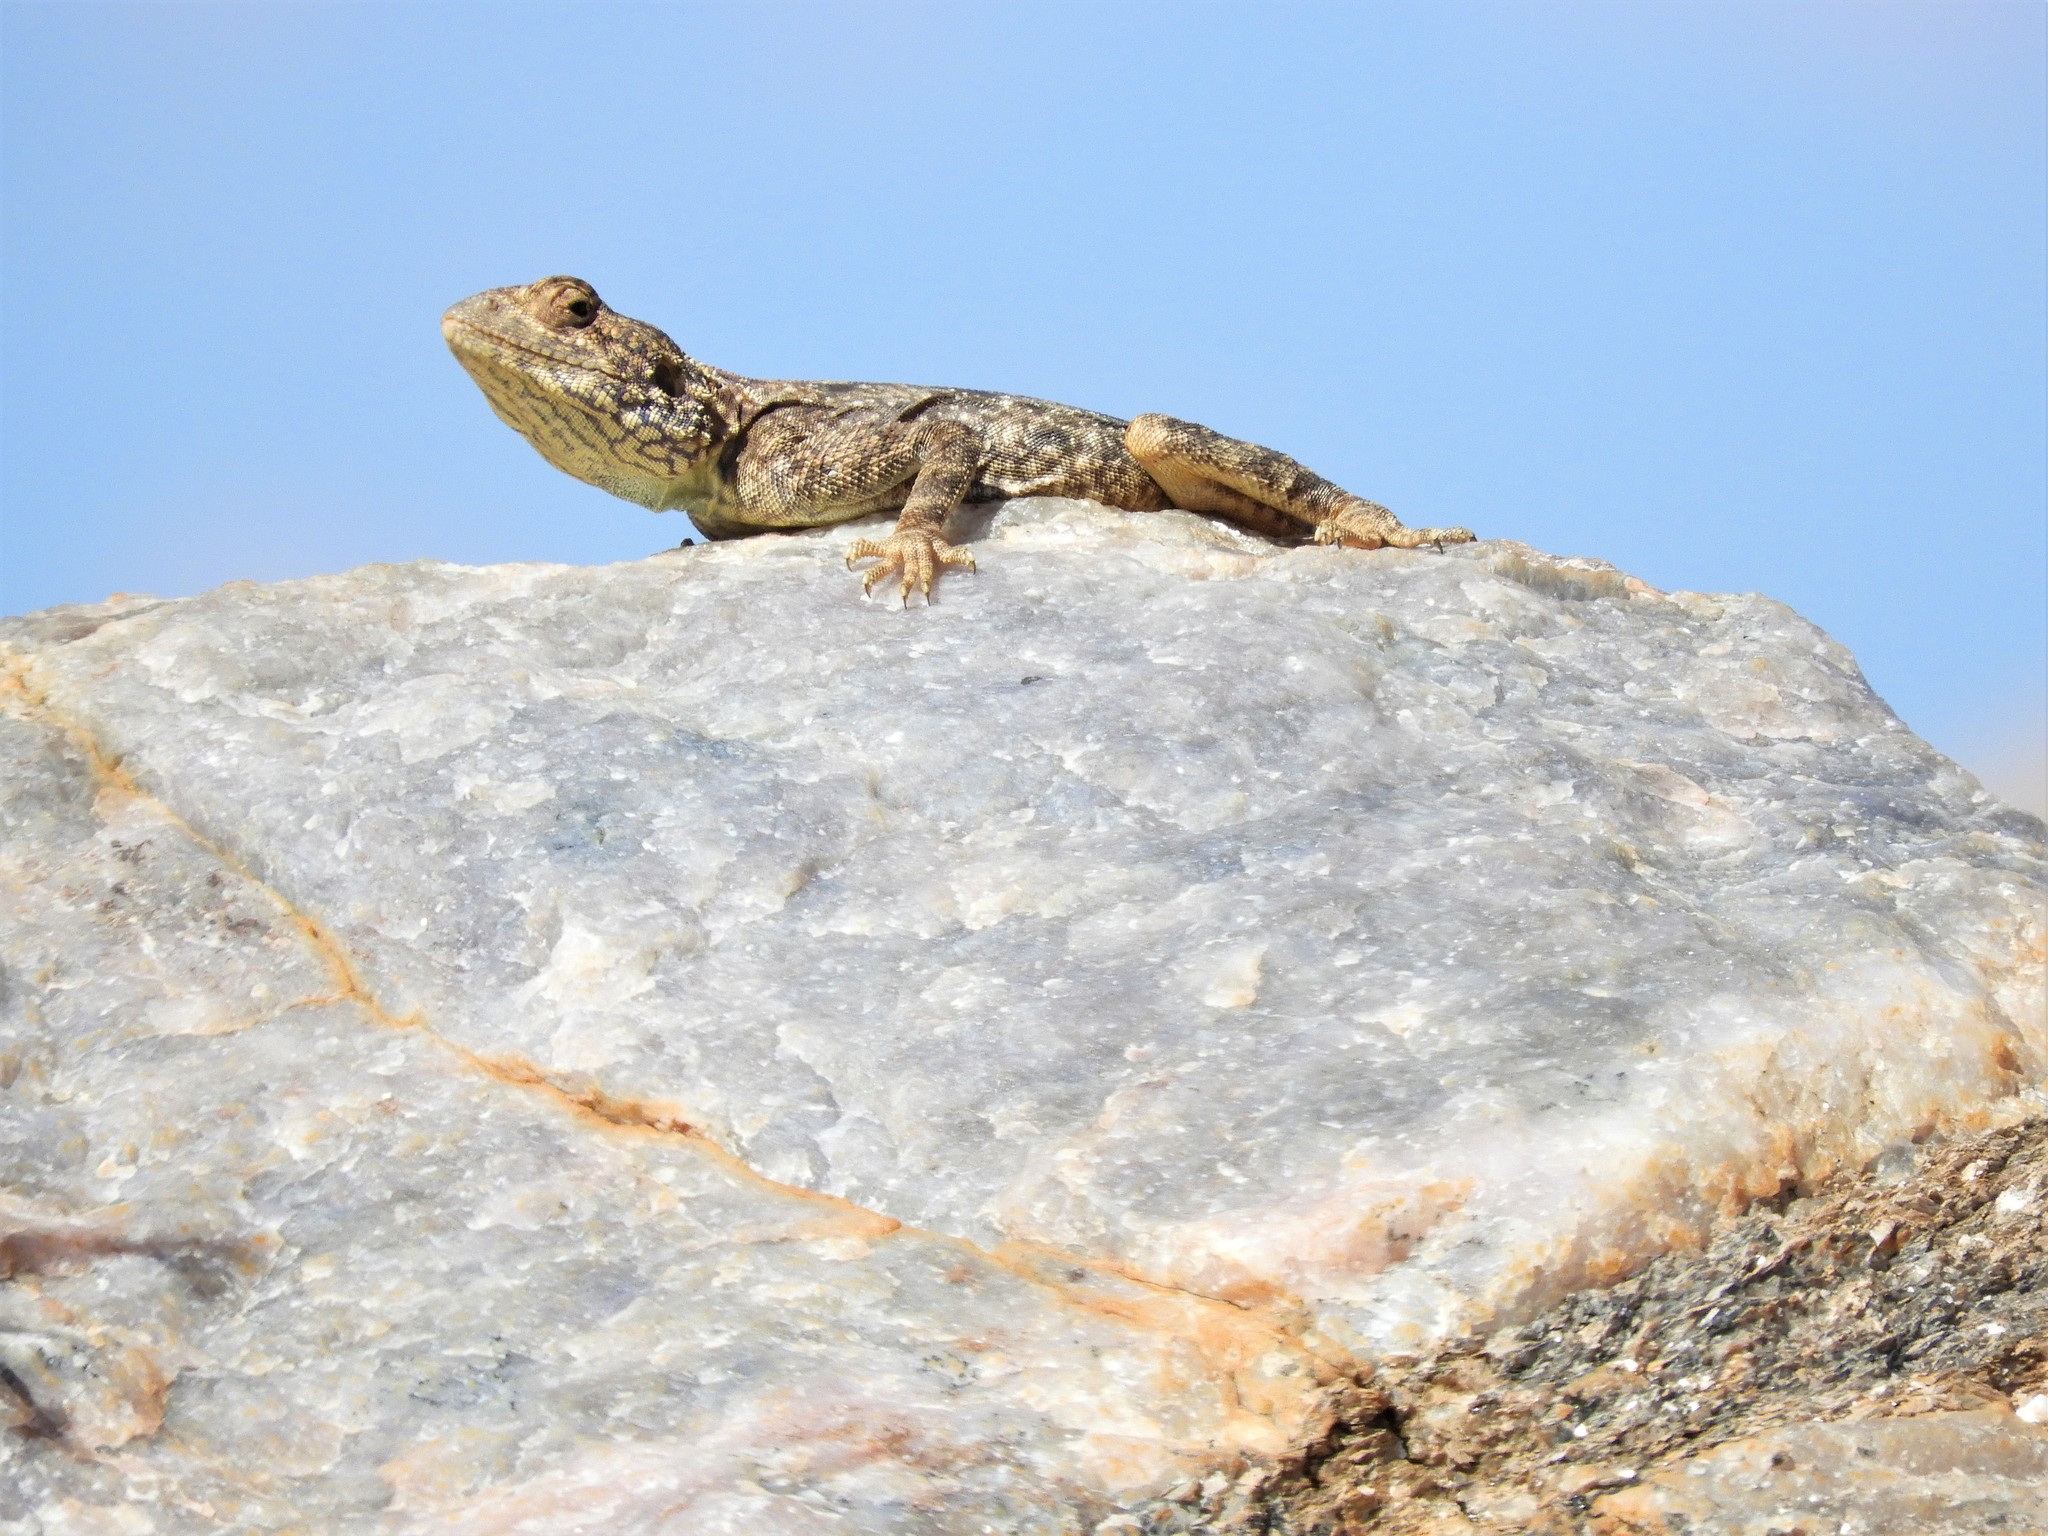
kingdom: Animalia
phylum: Chordata
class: Squamata
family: Agamidae
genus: Agama
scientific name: Agama atra
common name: Southern african rock agama
